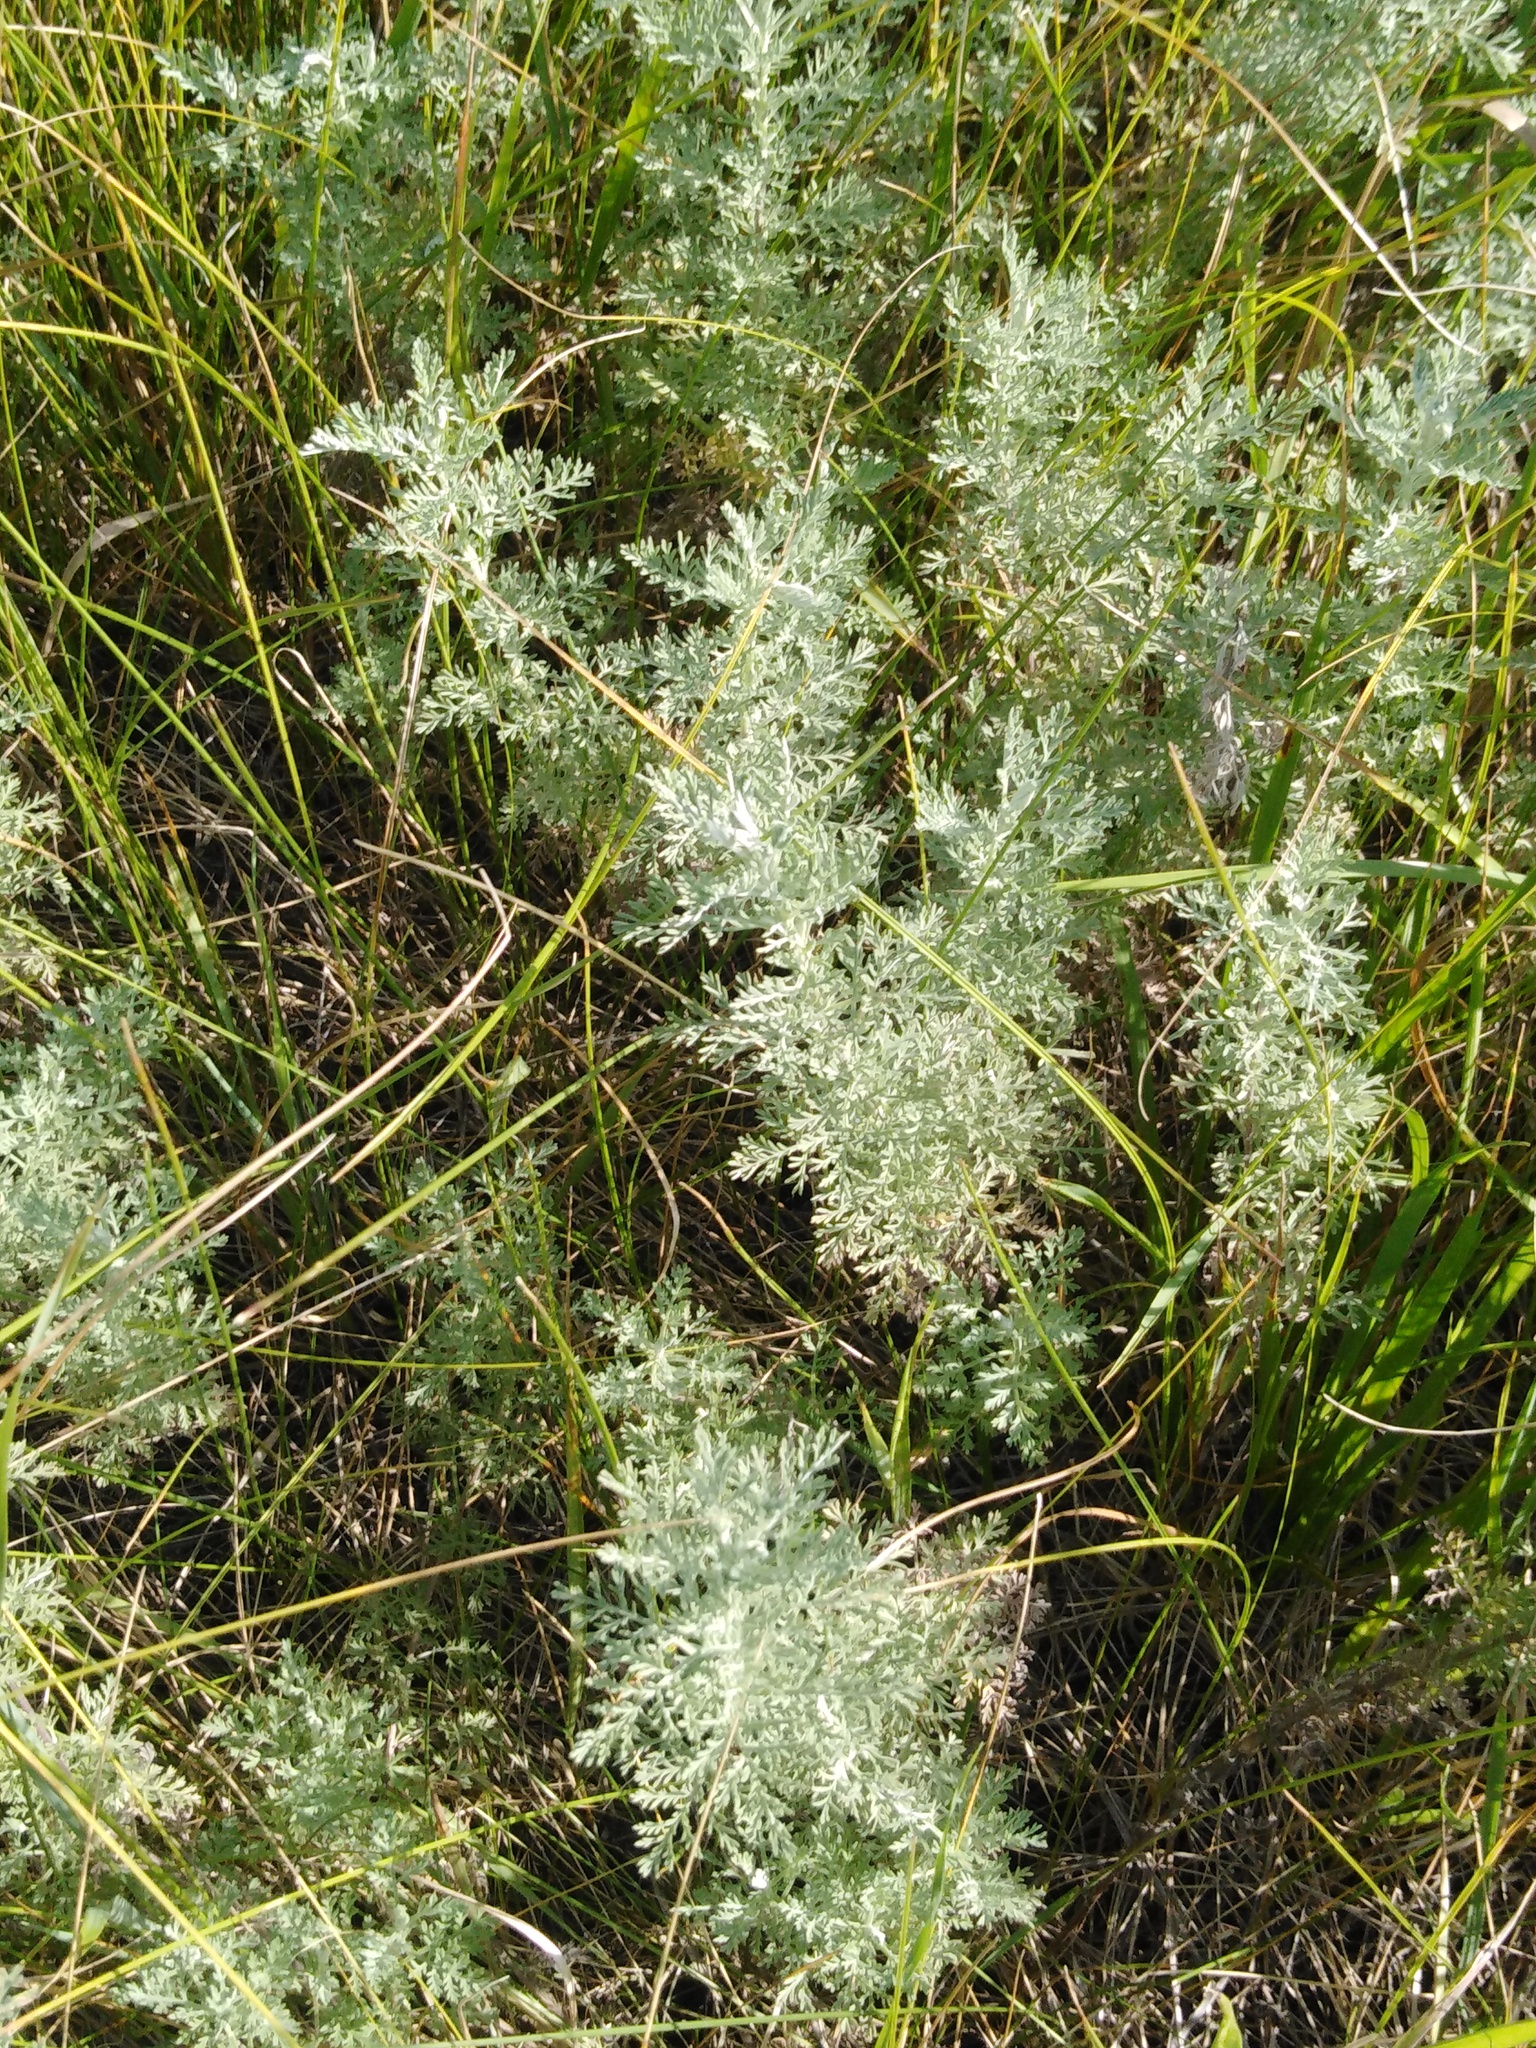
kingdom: Plantae
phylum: Tracheophyta
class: Magnoliopsida
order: Asterales
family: Asteraceae
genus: Artemisia
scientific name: Artemisia pontica
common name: Roman wormwood
